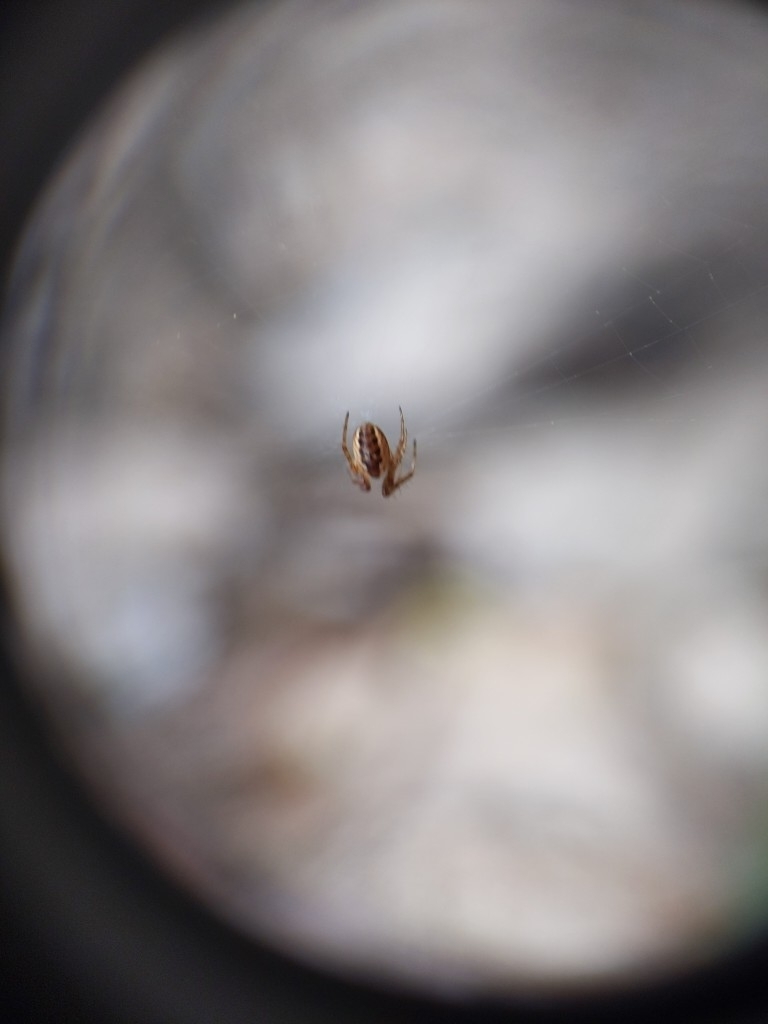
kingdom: Animalia
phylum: Arthropoda
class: Arachnida
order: Araneae
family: Araneidae
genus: Mangora
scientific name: Mangora placida
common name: Tuft-legged orbweaver
